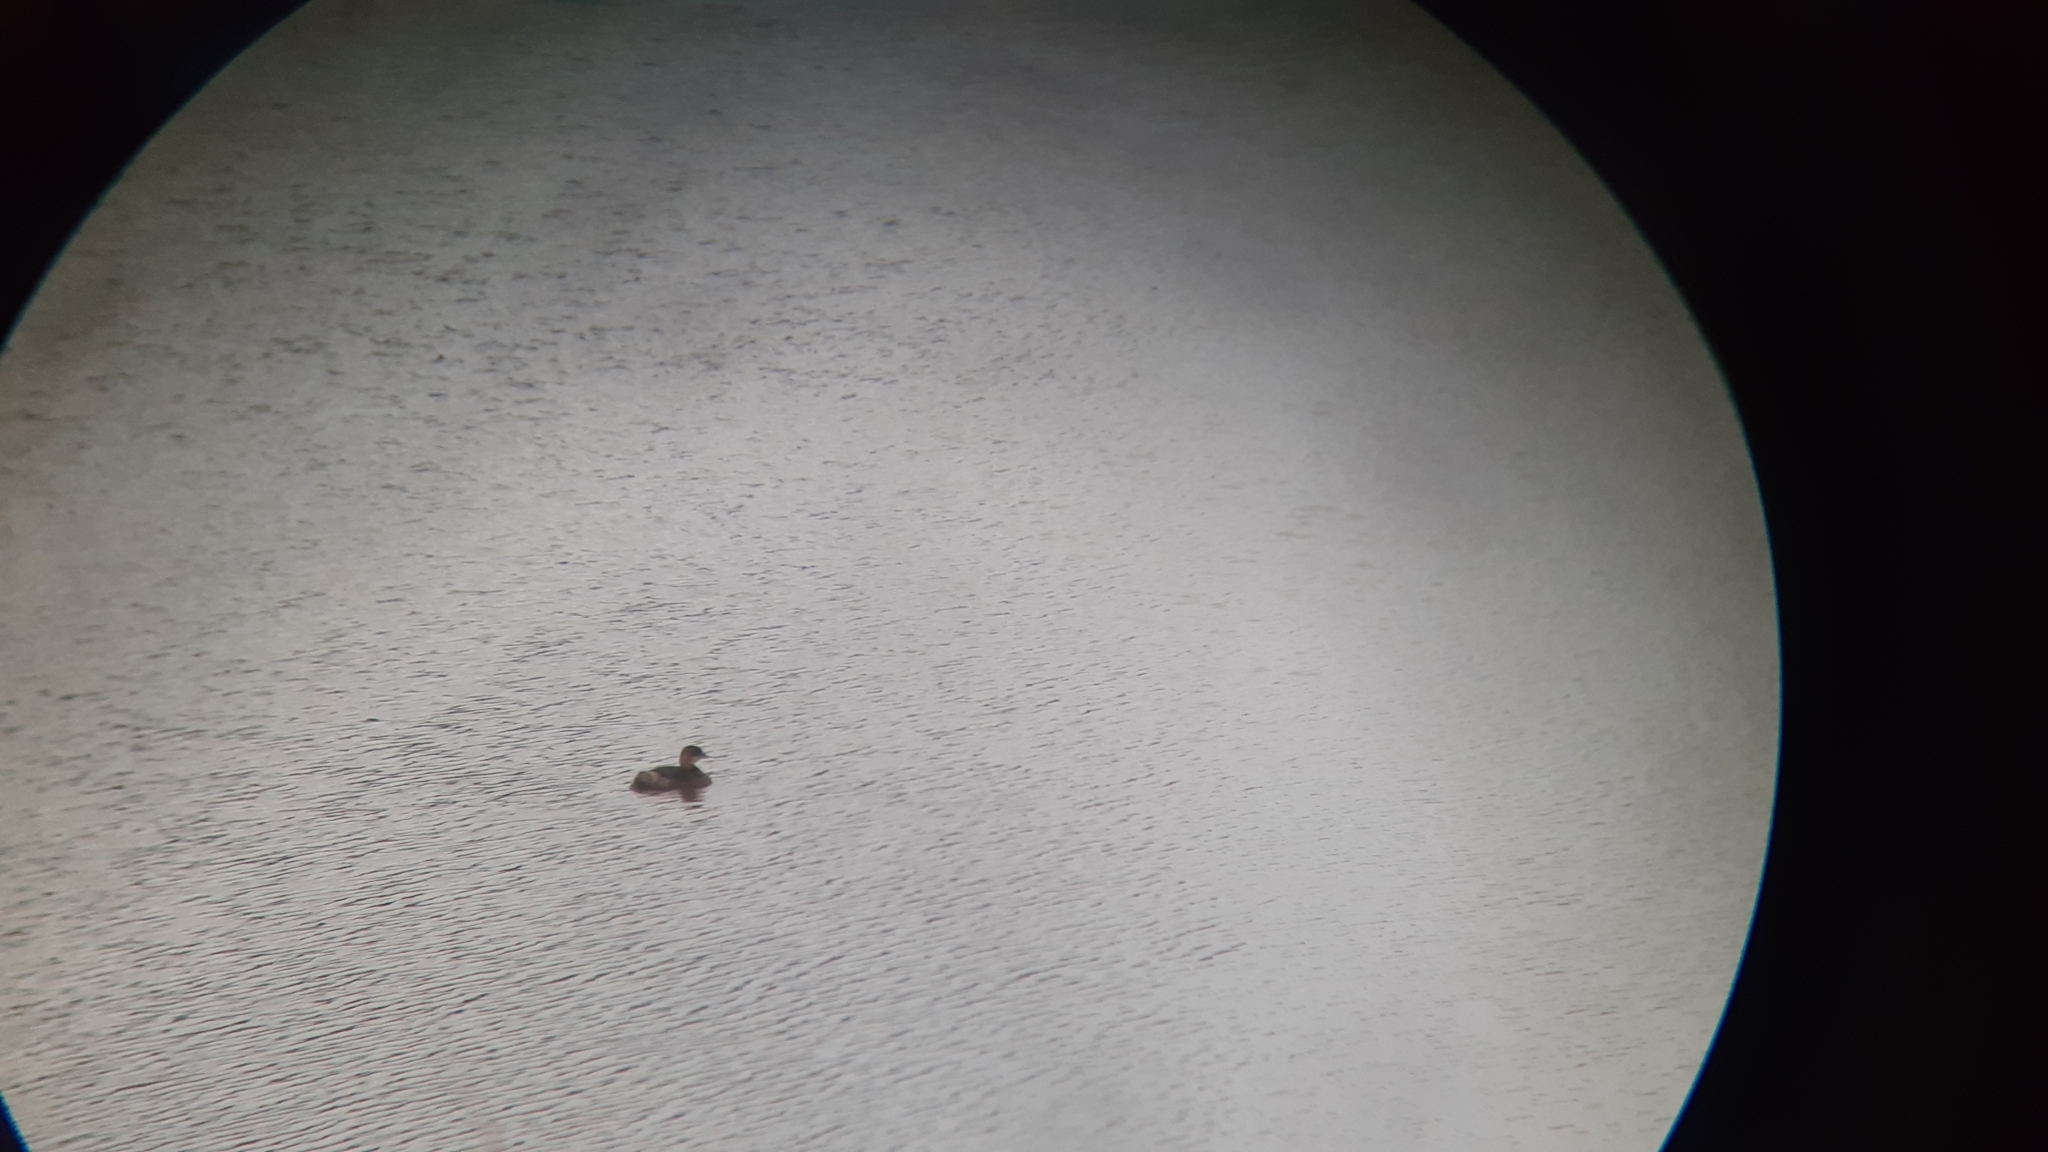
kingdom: Animalia
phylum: Chordata
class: Aves
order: Podicipediformes
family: Podicipedidae
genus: Podilymbus
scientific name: Podilymbus podiceps
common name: Pied-billed grebe
